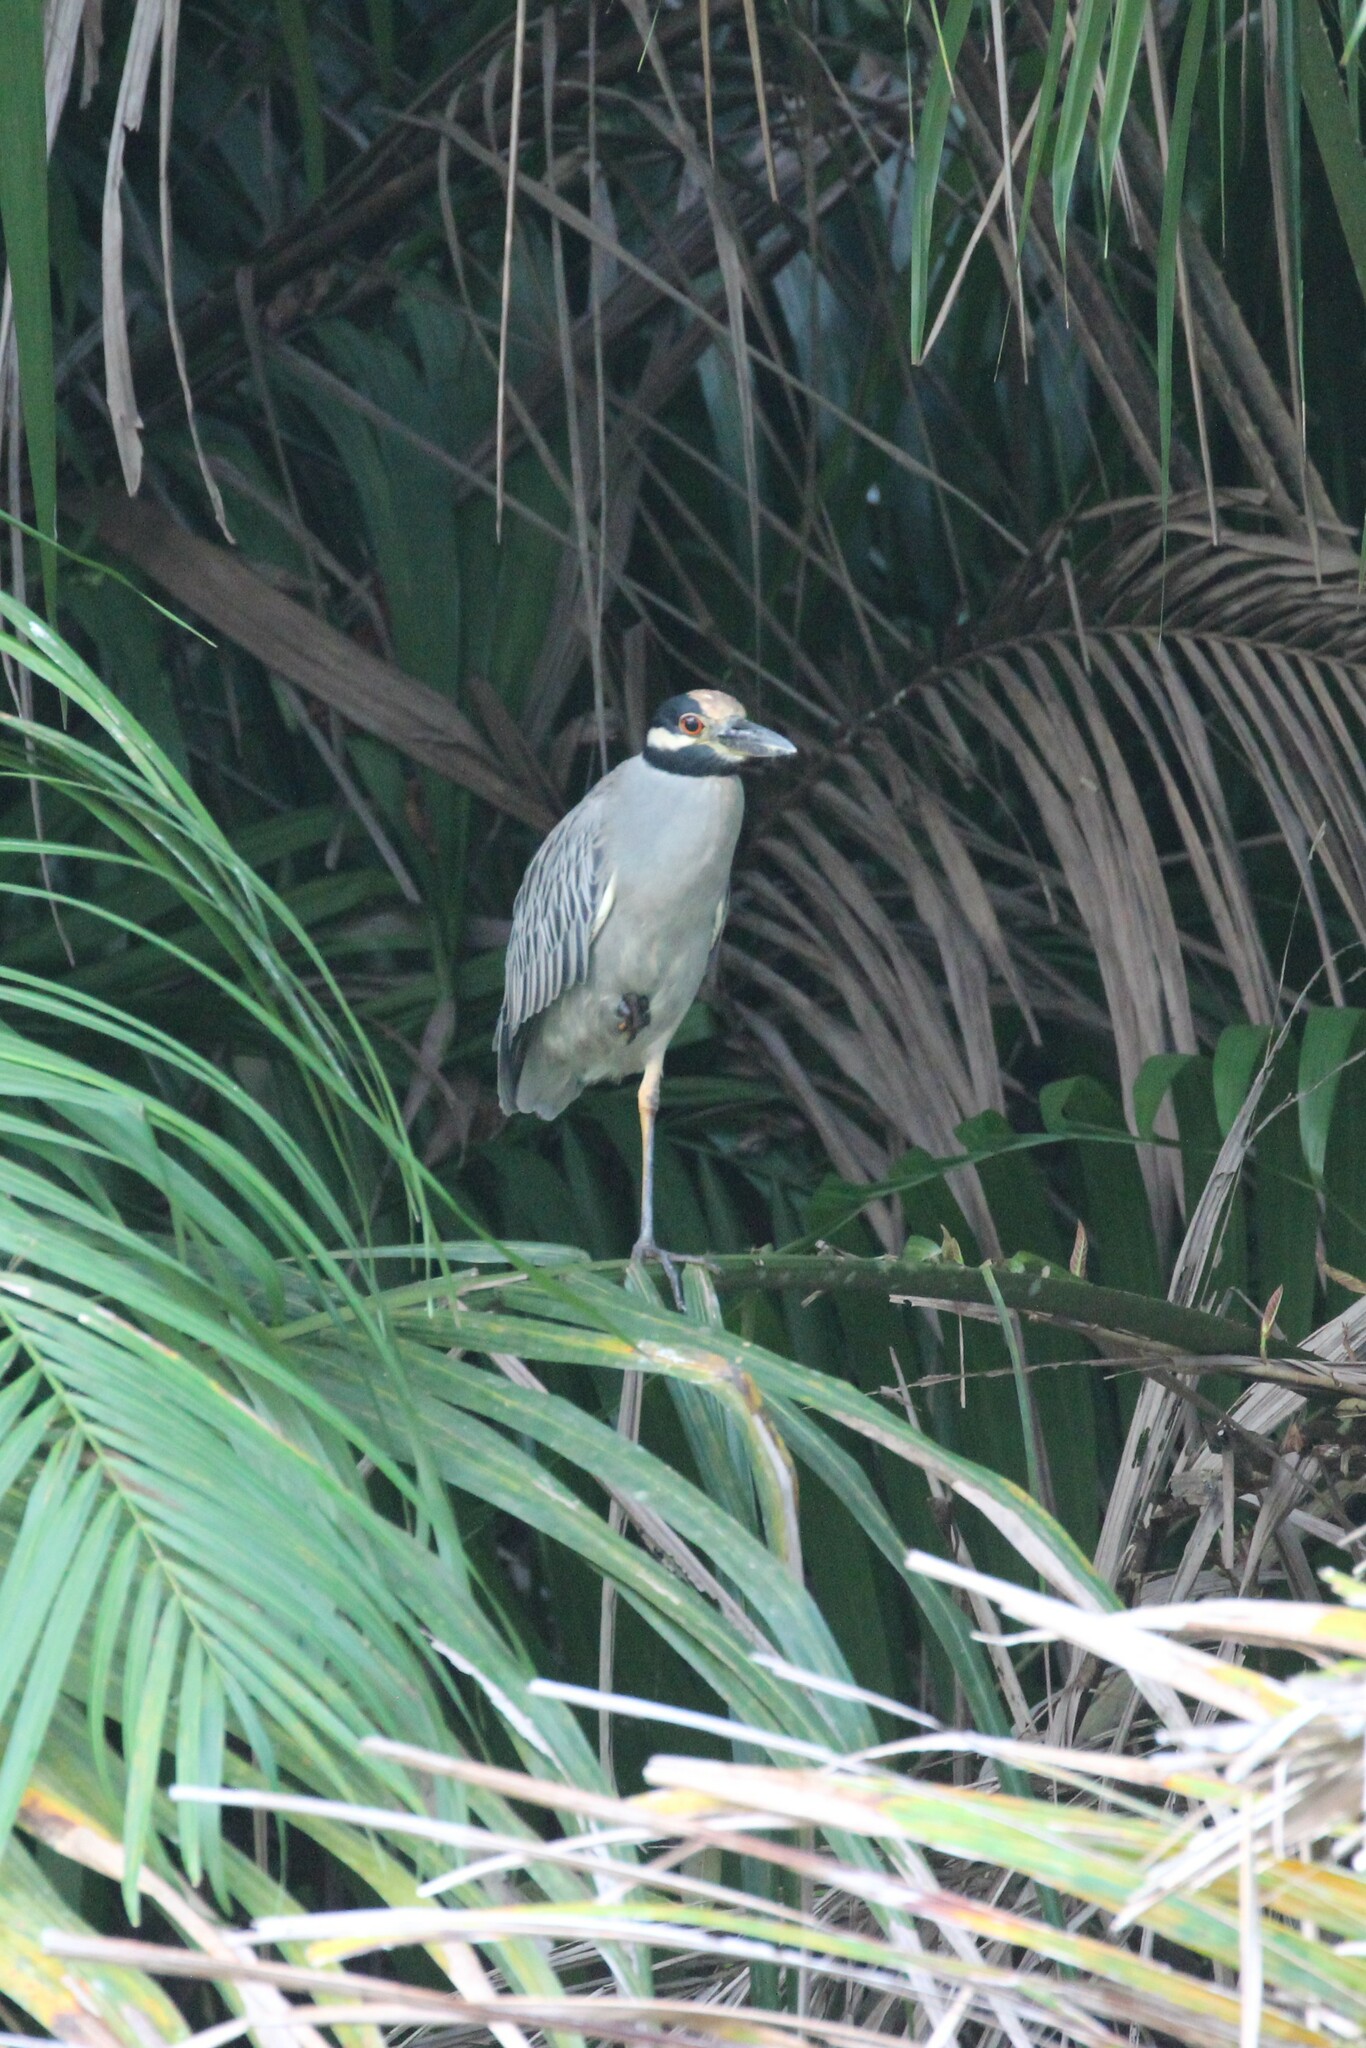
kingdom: Animalia
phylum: Chordata
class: Aves
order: Pelecaniformes
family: Ardeidae
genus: Nyctanassa
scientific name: Nyctanassa violacea
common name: Yellow-crowned night heron
